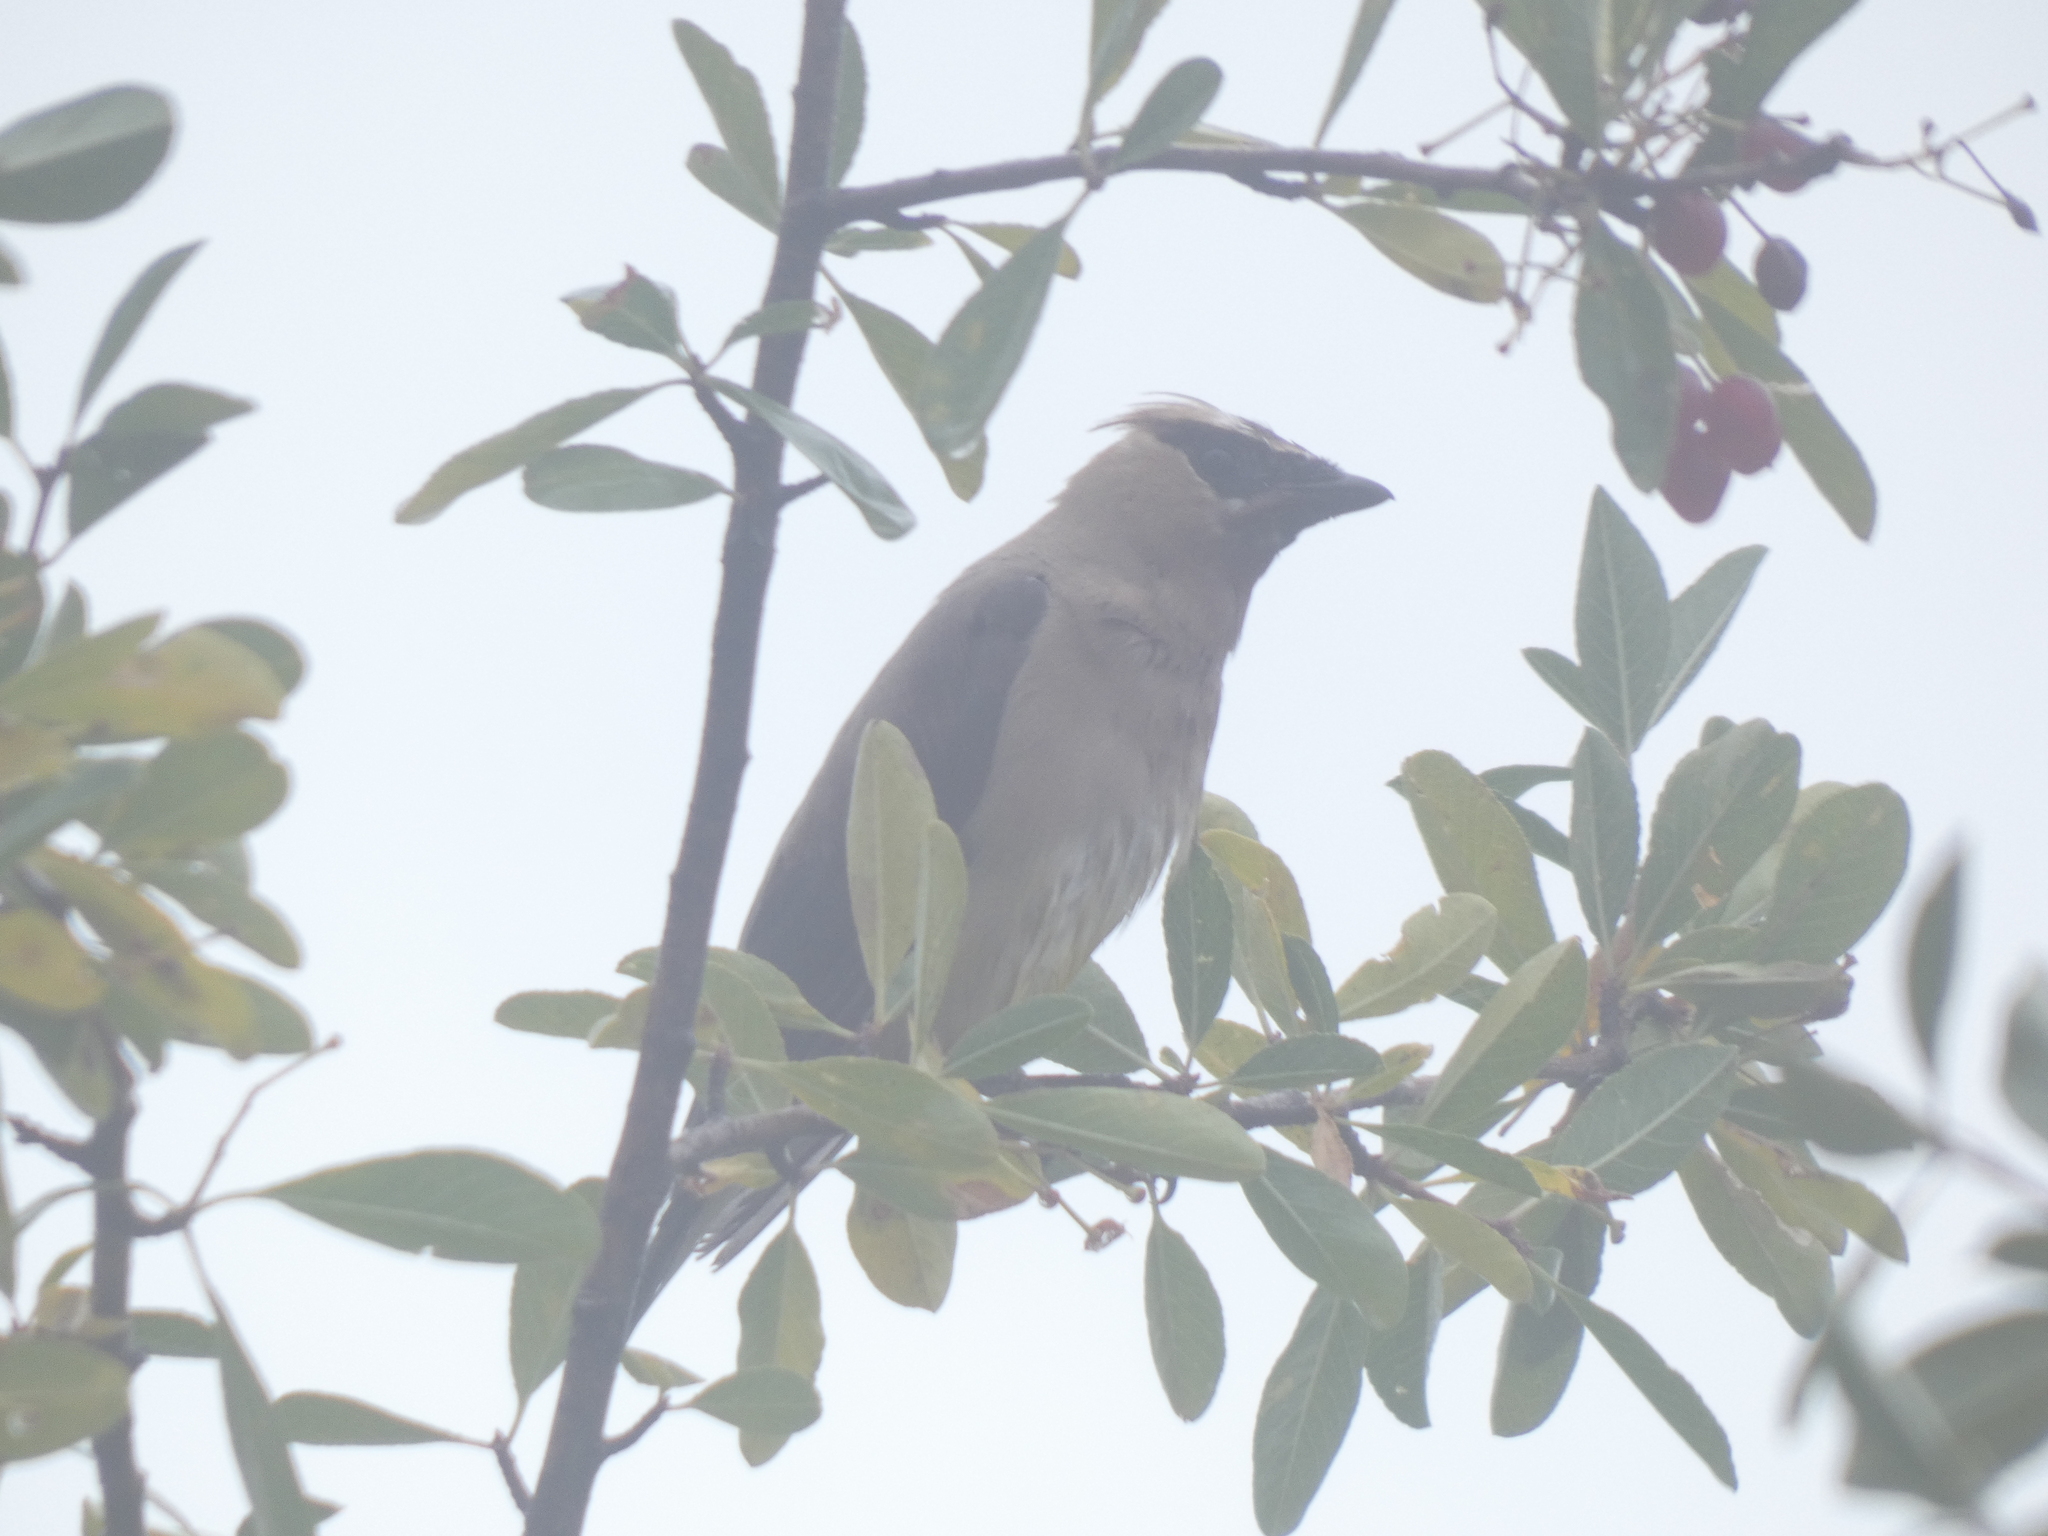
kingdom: Animalia
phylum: Chordata
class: Aves
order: Passeriformes
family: Bombycillidae
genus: Bombycilla
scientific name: Bombycilla cedrorum
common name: Cedar waxwing
